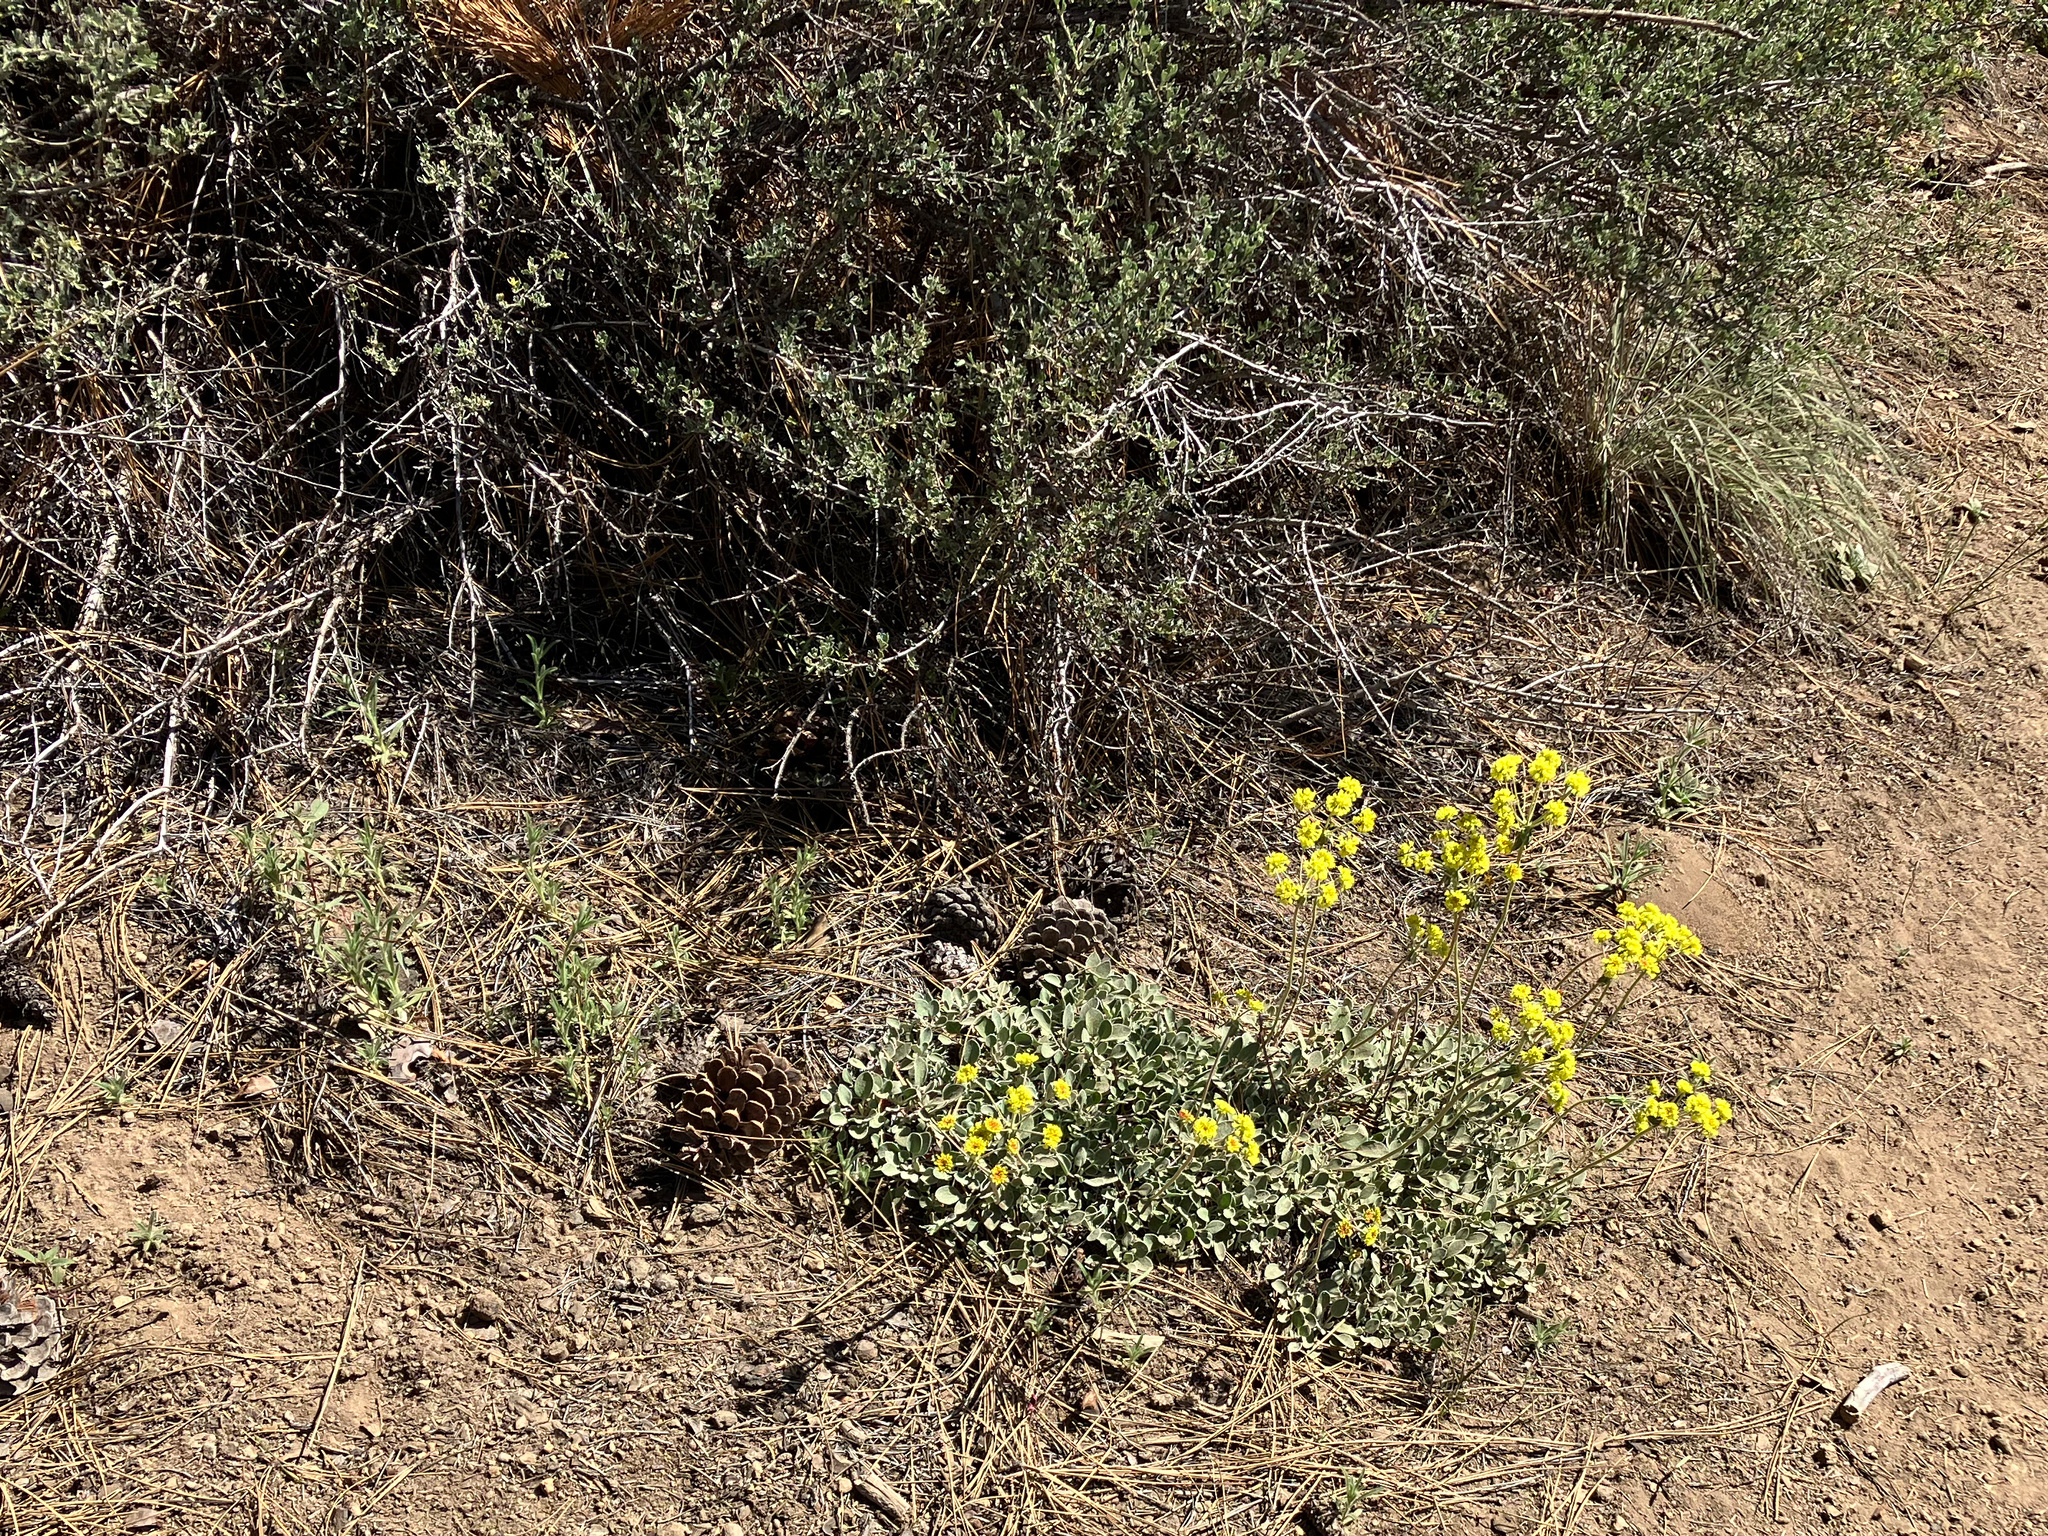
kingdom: Plantae
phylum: Tracheophyta
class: Magnoliopsida
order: Caryophyllales
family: Polygonaceae
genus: Eriogonum
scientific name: Eriogonum umbellatum
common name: Sulfur-buckwheat
